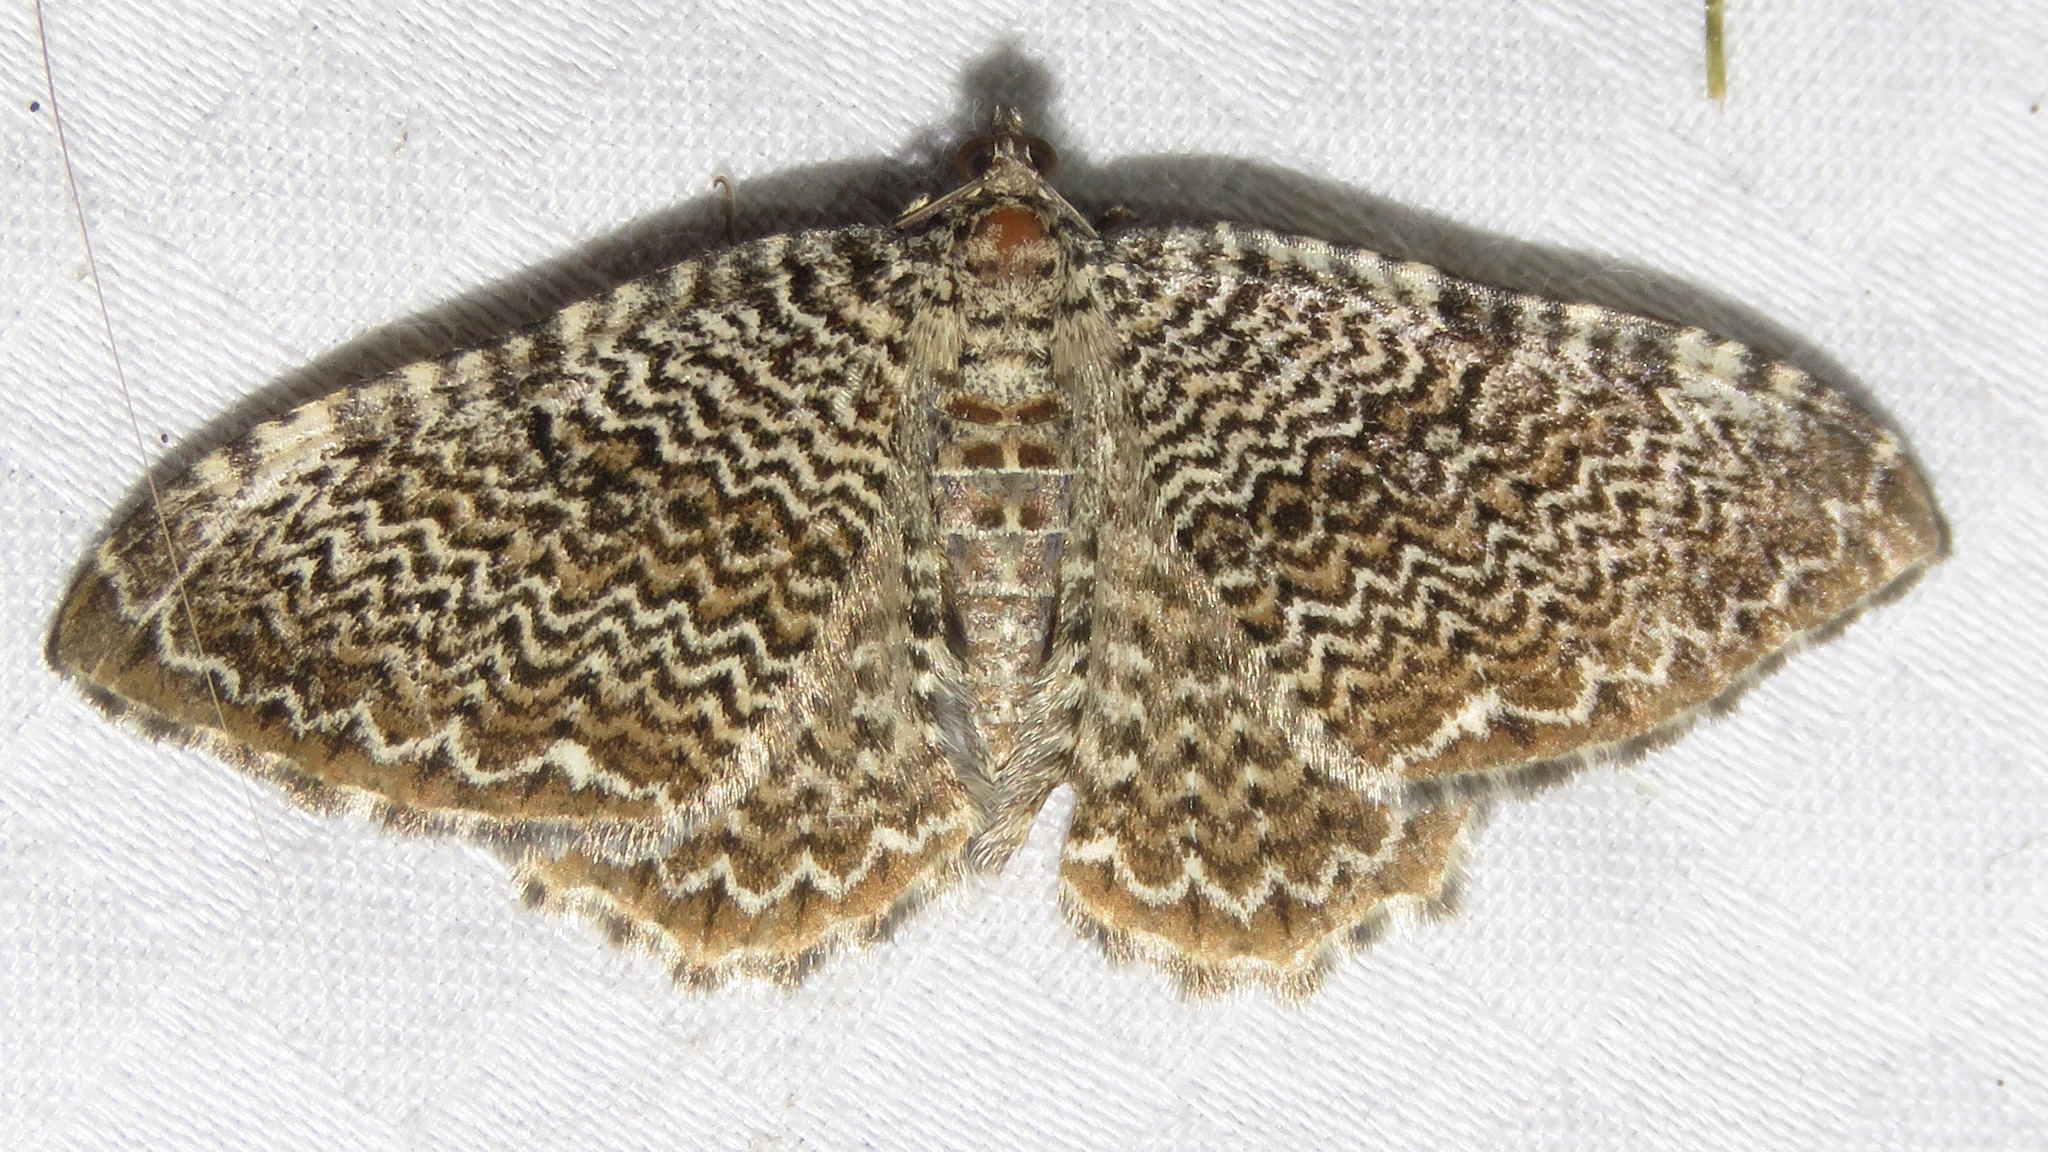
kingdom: Animalia
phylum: Arthropoda
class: Insecta
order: Lepidoptera
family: Geometridae
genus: Rheumaptera
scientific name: Rheumaptera
